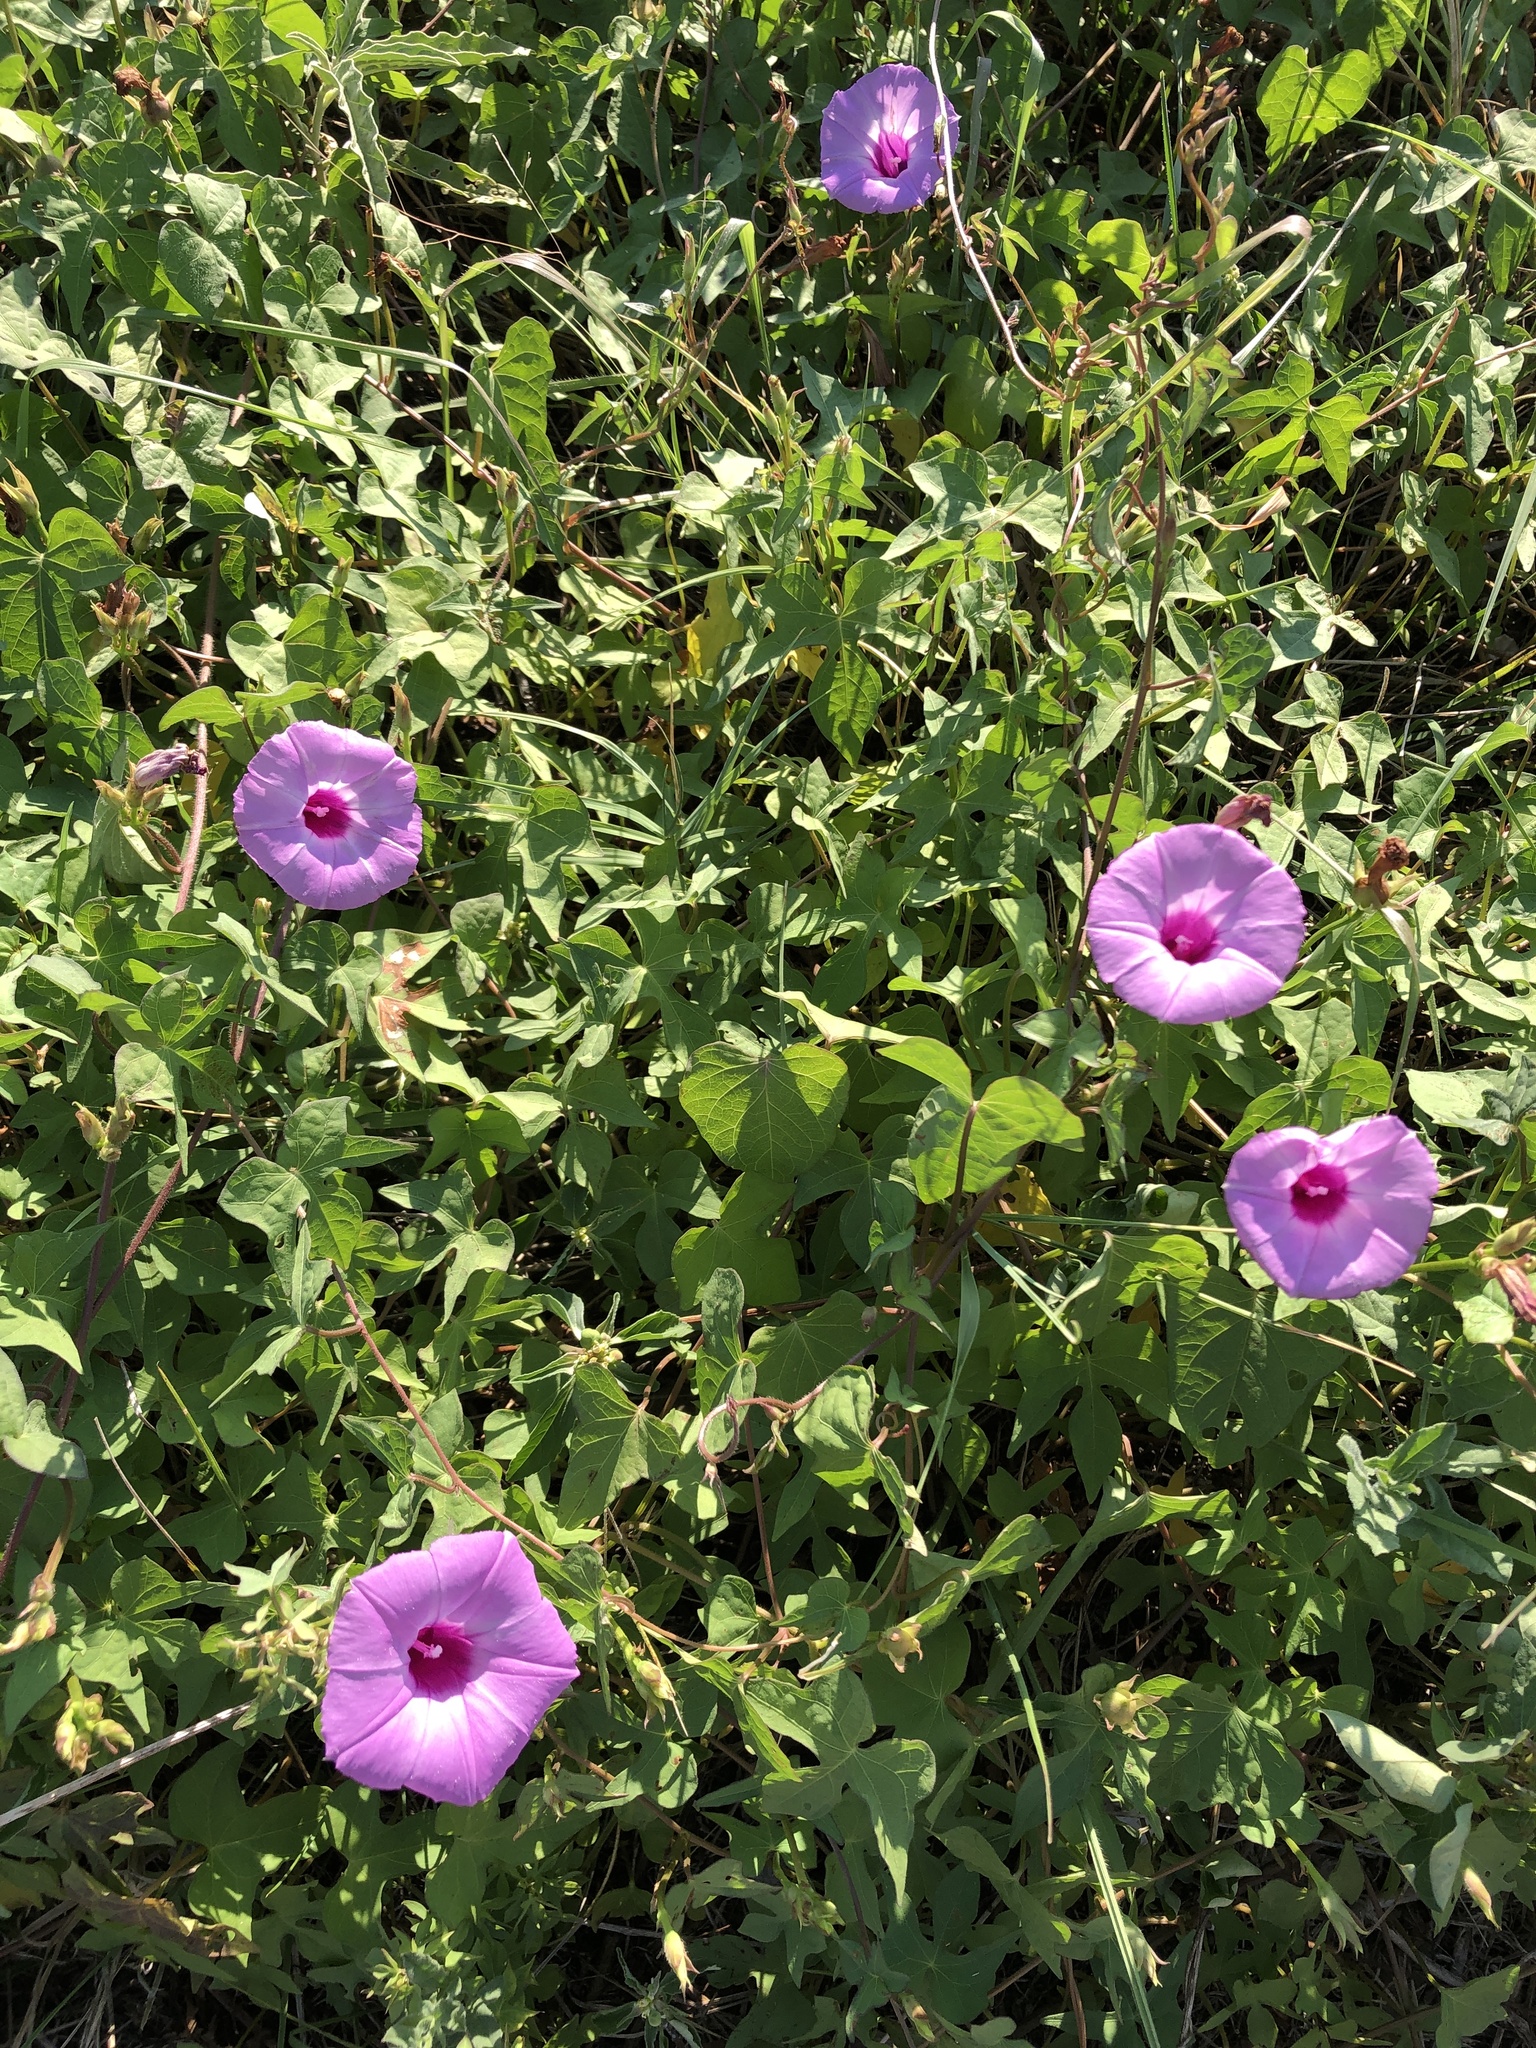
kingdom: Plantae
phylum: Tracheophyta
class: Magnoliopsida
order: Solanales
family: Convolvulaceae
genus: Ipomoea
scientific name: Ipomoea cordatotriloba
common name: Cotton morning glory
